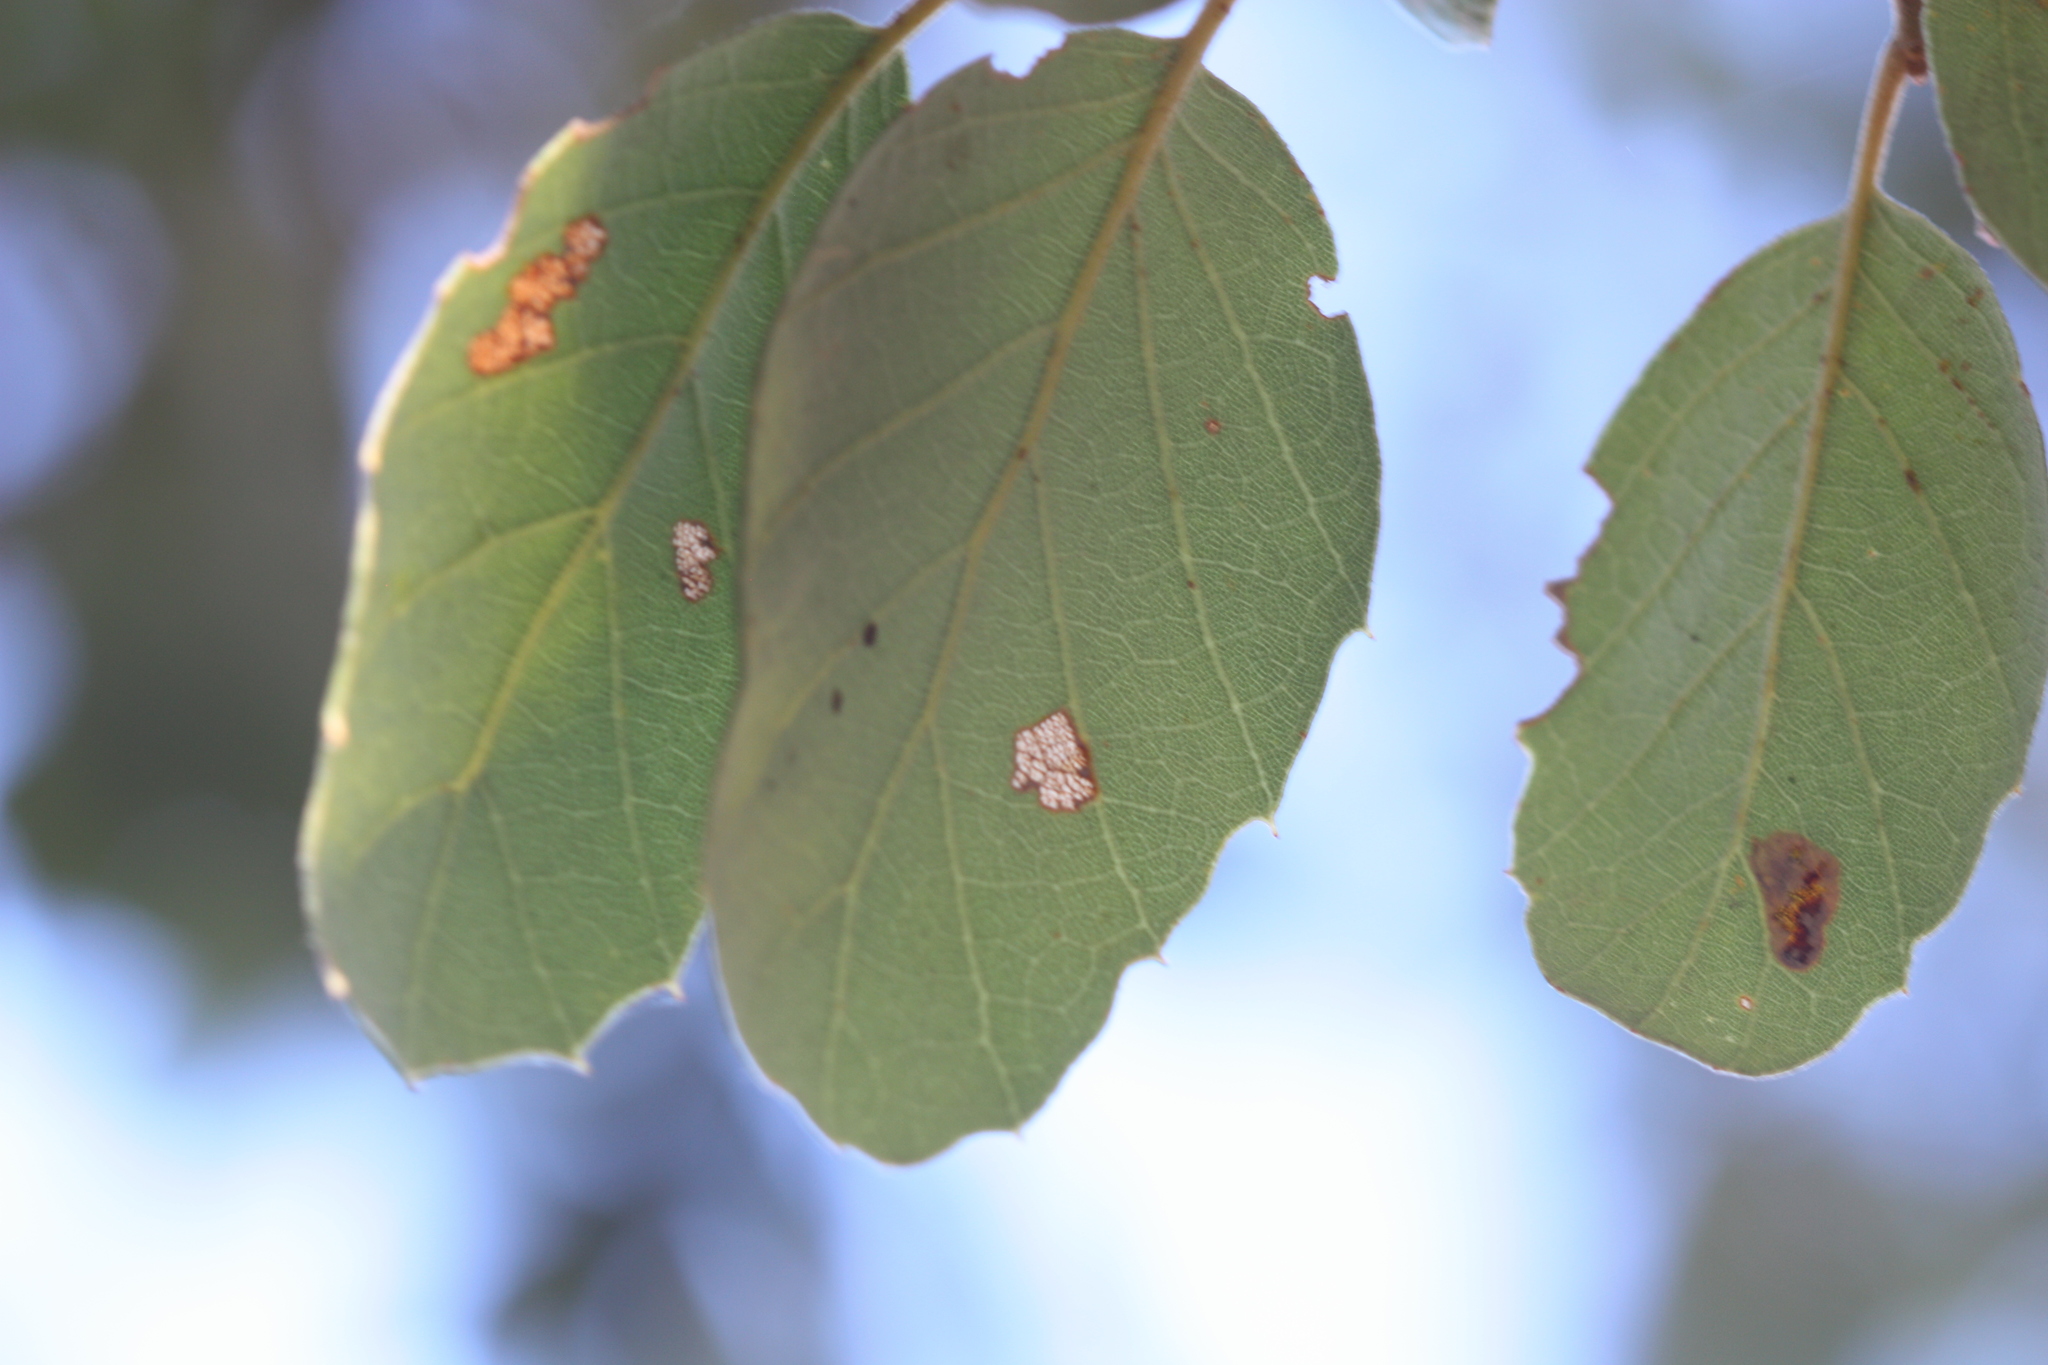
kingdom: Plantae
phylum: Tracheophyta
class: Magnoliopsida
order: Fagales
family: Fagaceae
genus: Quercus
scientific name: Quercus suber
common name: Cork oak
